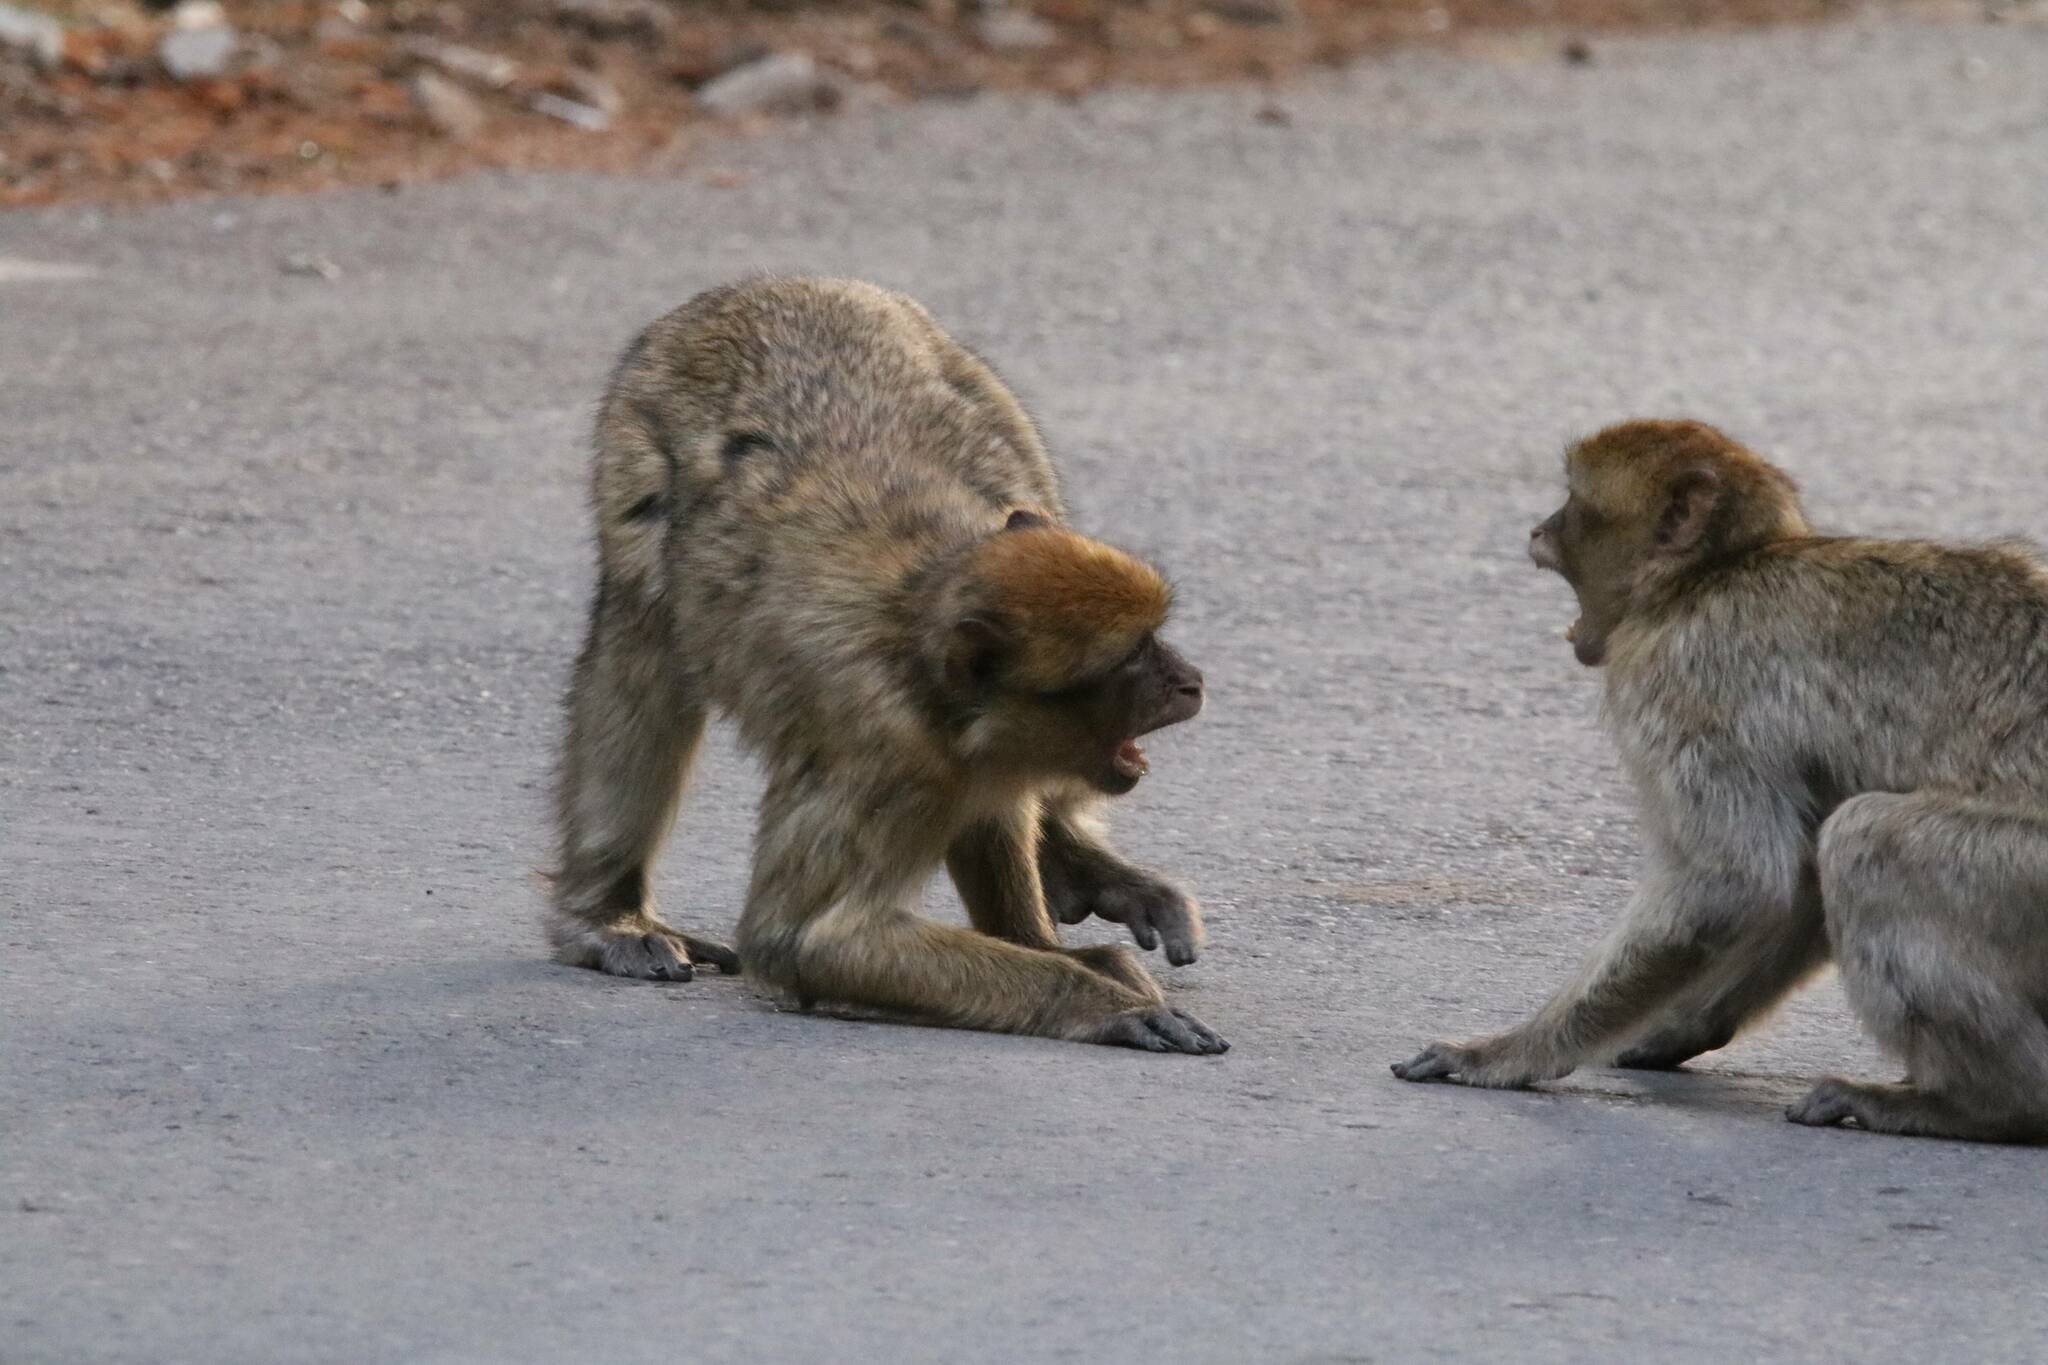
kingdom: Animalia
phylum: Chordata
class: Mammalia
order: Primates
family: Cercopithecidae
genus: Macaca
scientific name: Macaca sylvanus
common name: Barbary macaque
